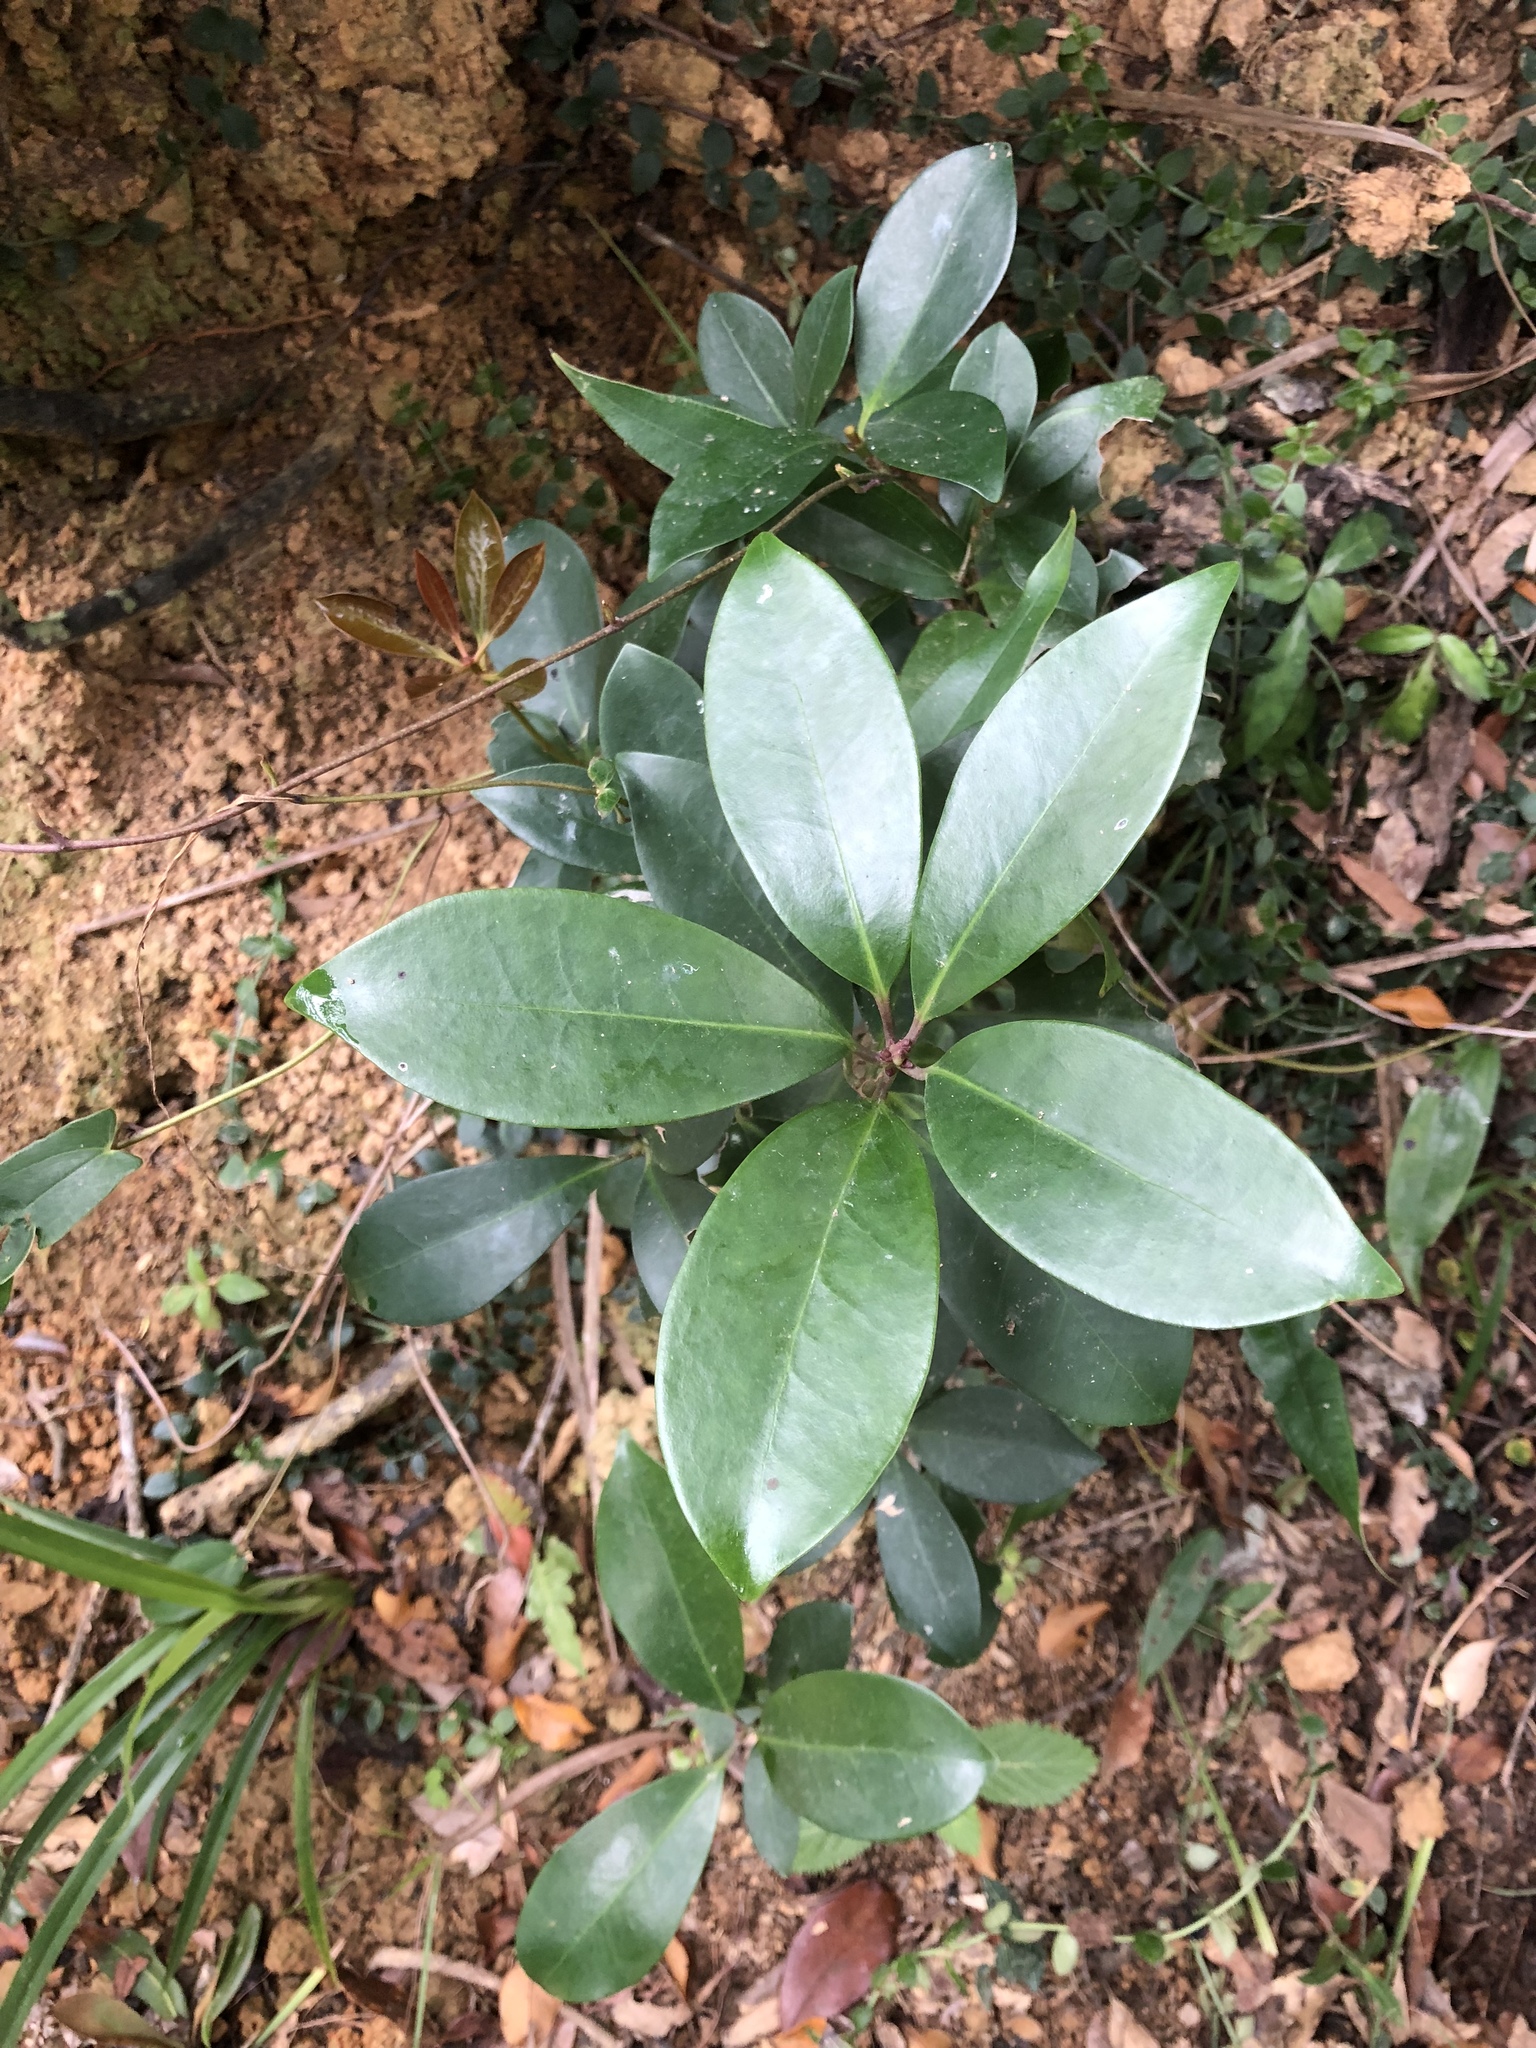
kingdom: Plantae
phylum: Tracheophyta
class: Magnoliopsida
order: Austrobaileyales
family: Schisandraceae
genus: Illicium
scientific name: Illicium arborescens
